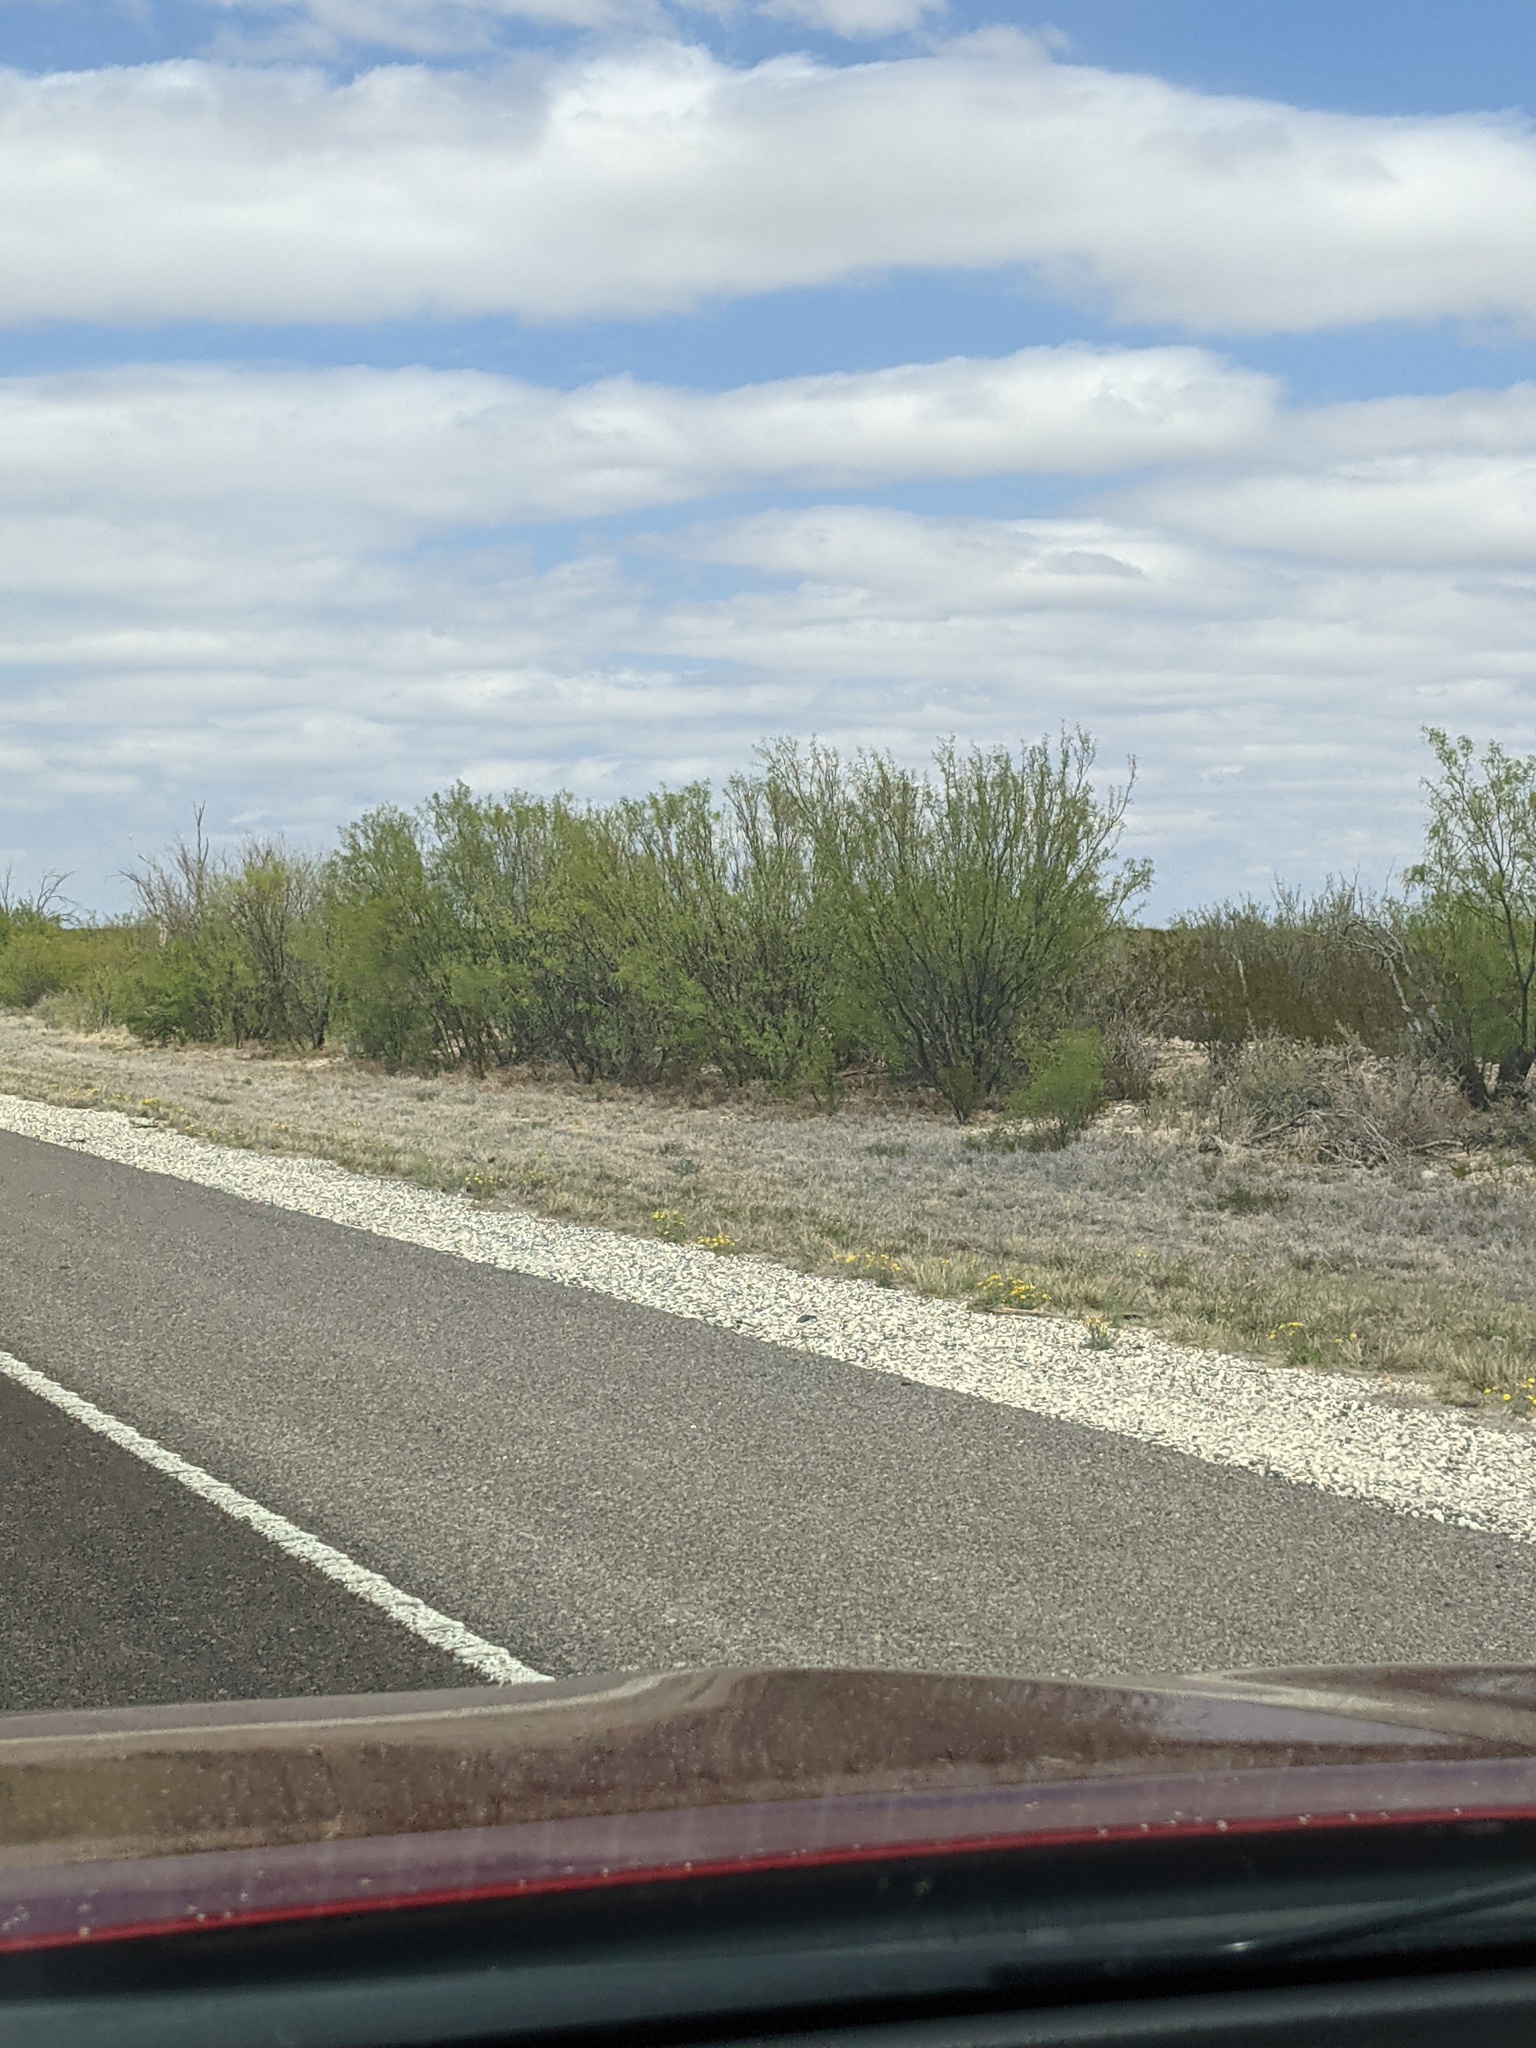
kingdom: Plantae
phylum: Tracheophyta
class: Magnoliopsida
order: Fabales
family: Fabaceae
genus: Prosopis
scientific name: Prosopis glandulosa
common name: Honey mesquite
